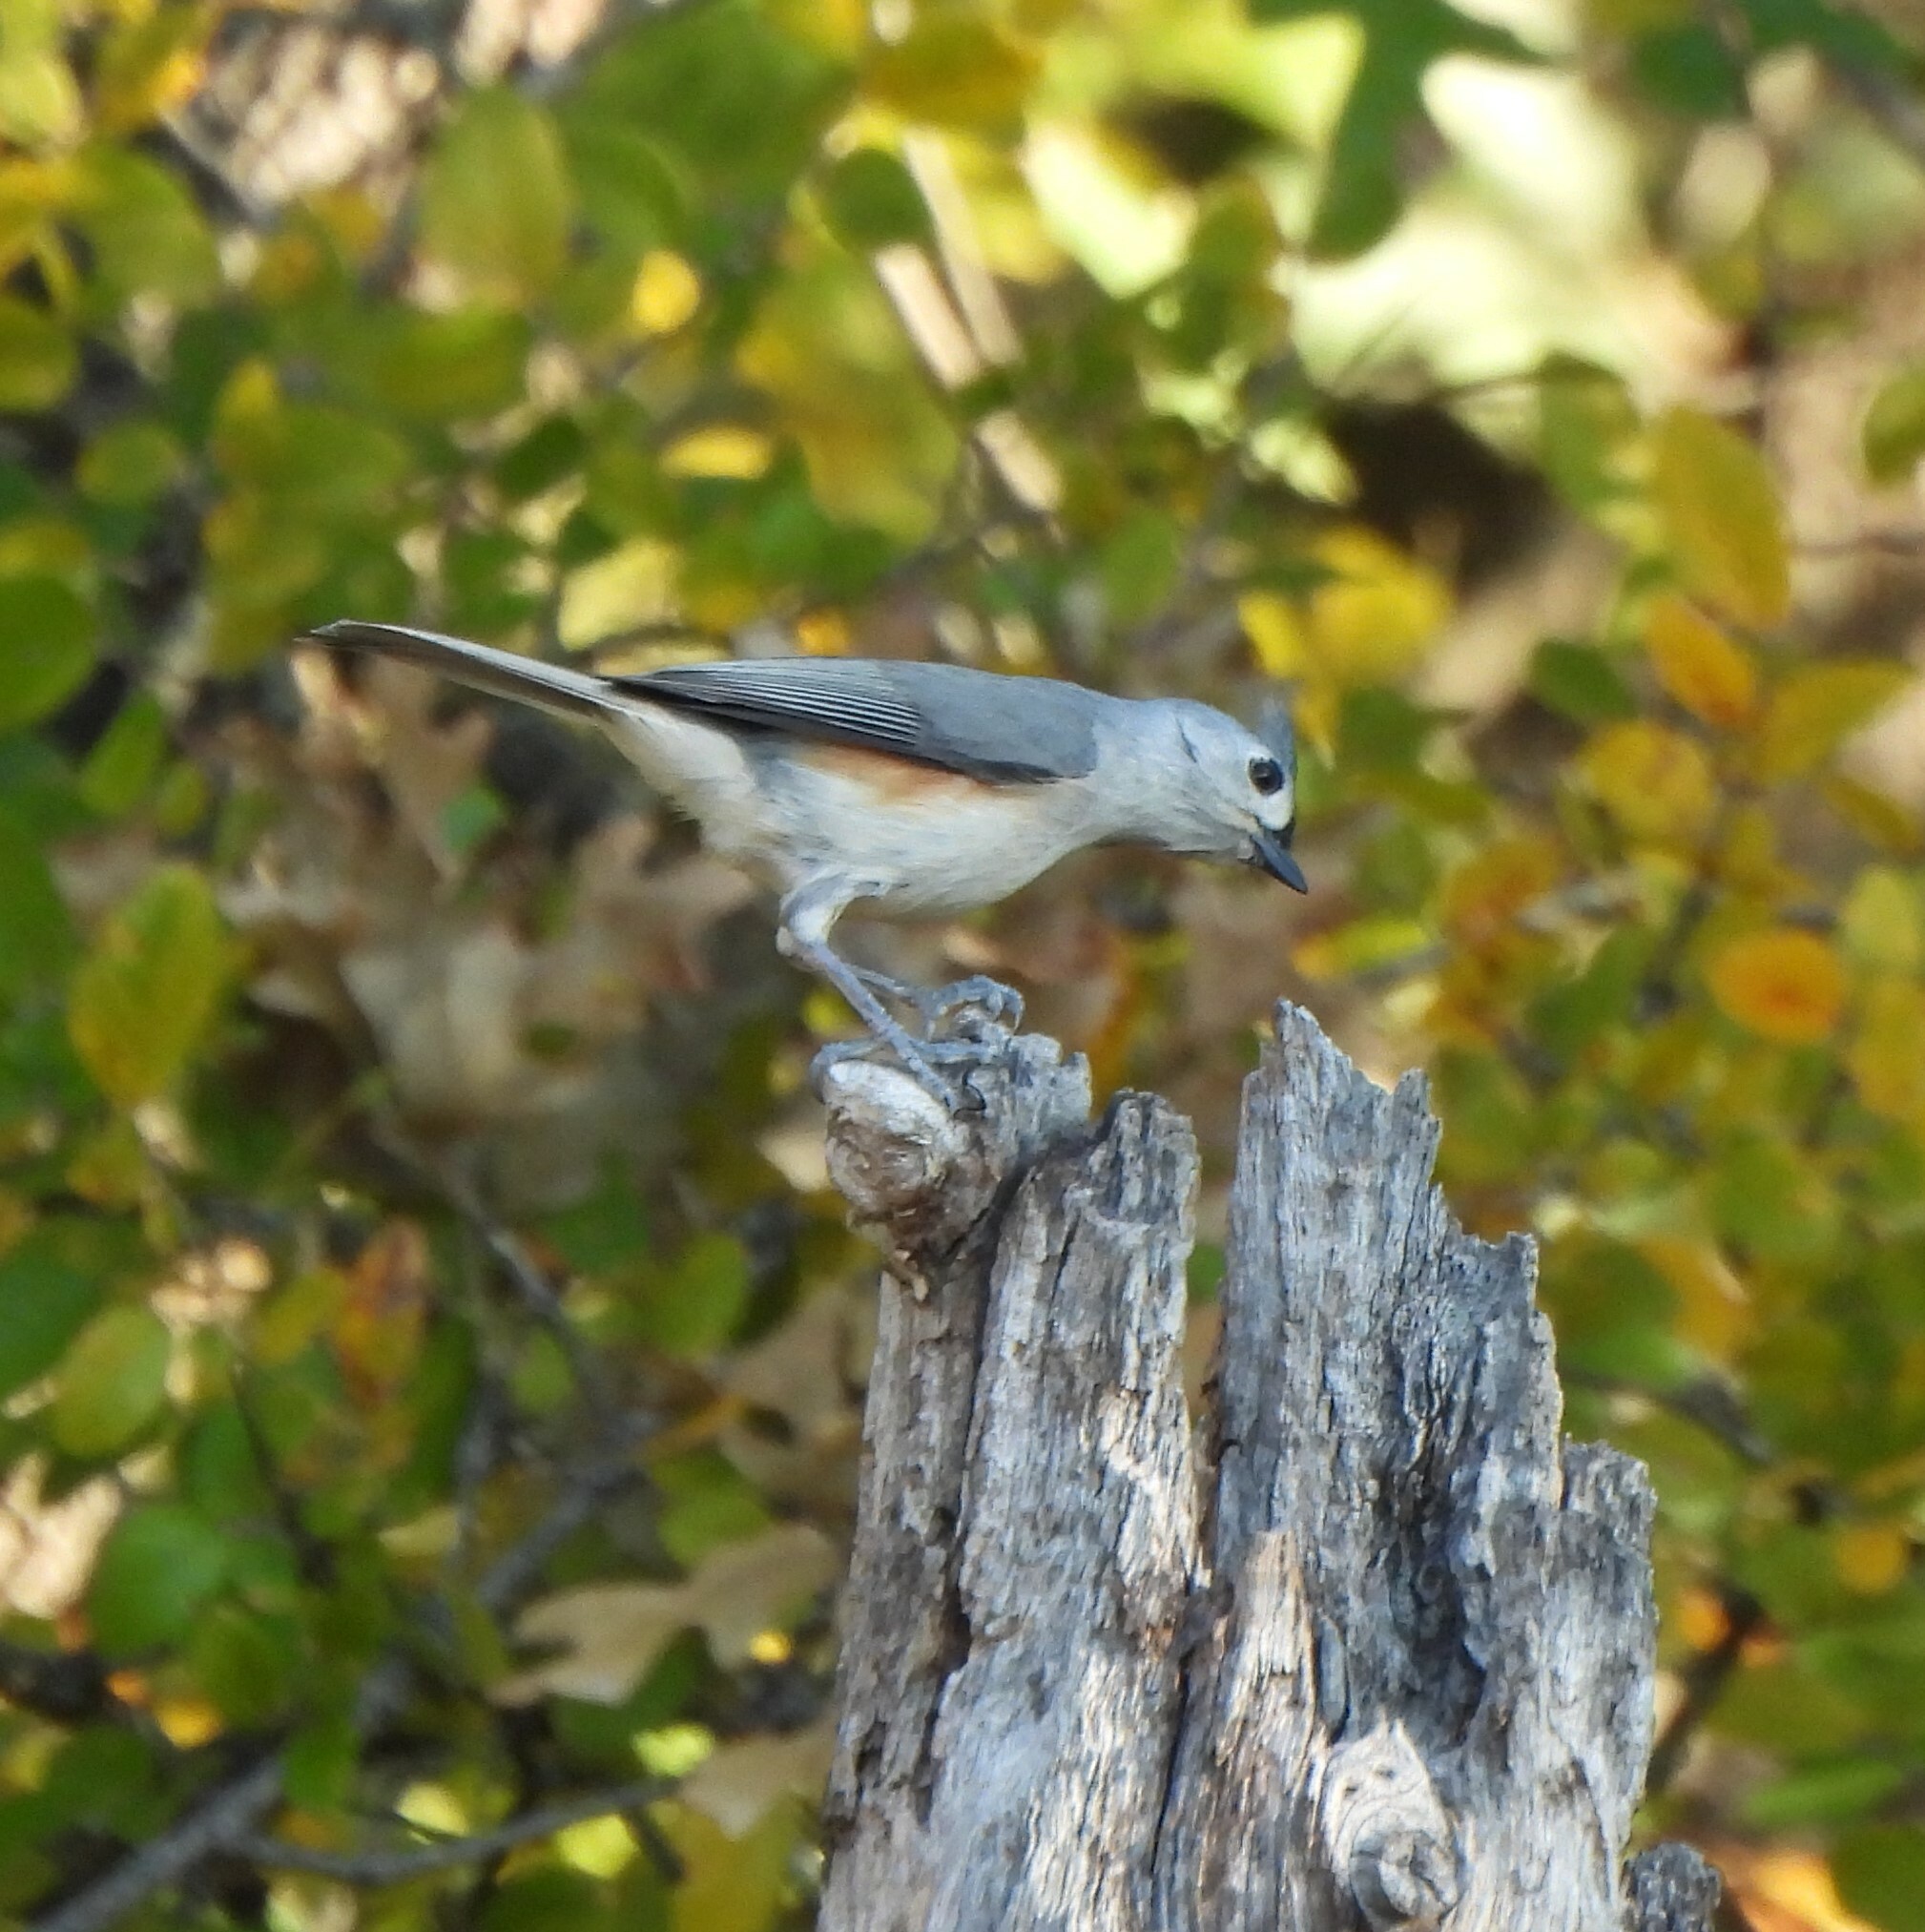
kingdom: Animalia
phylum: Chordata
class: Aves
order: Passeriformes
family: Paridae
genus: Baeolophus
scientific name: Baeolophus bicolor
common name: Tufted titmouse
